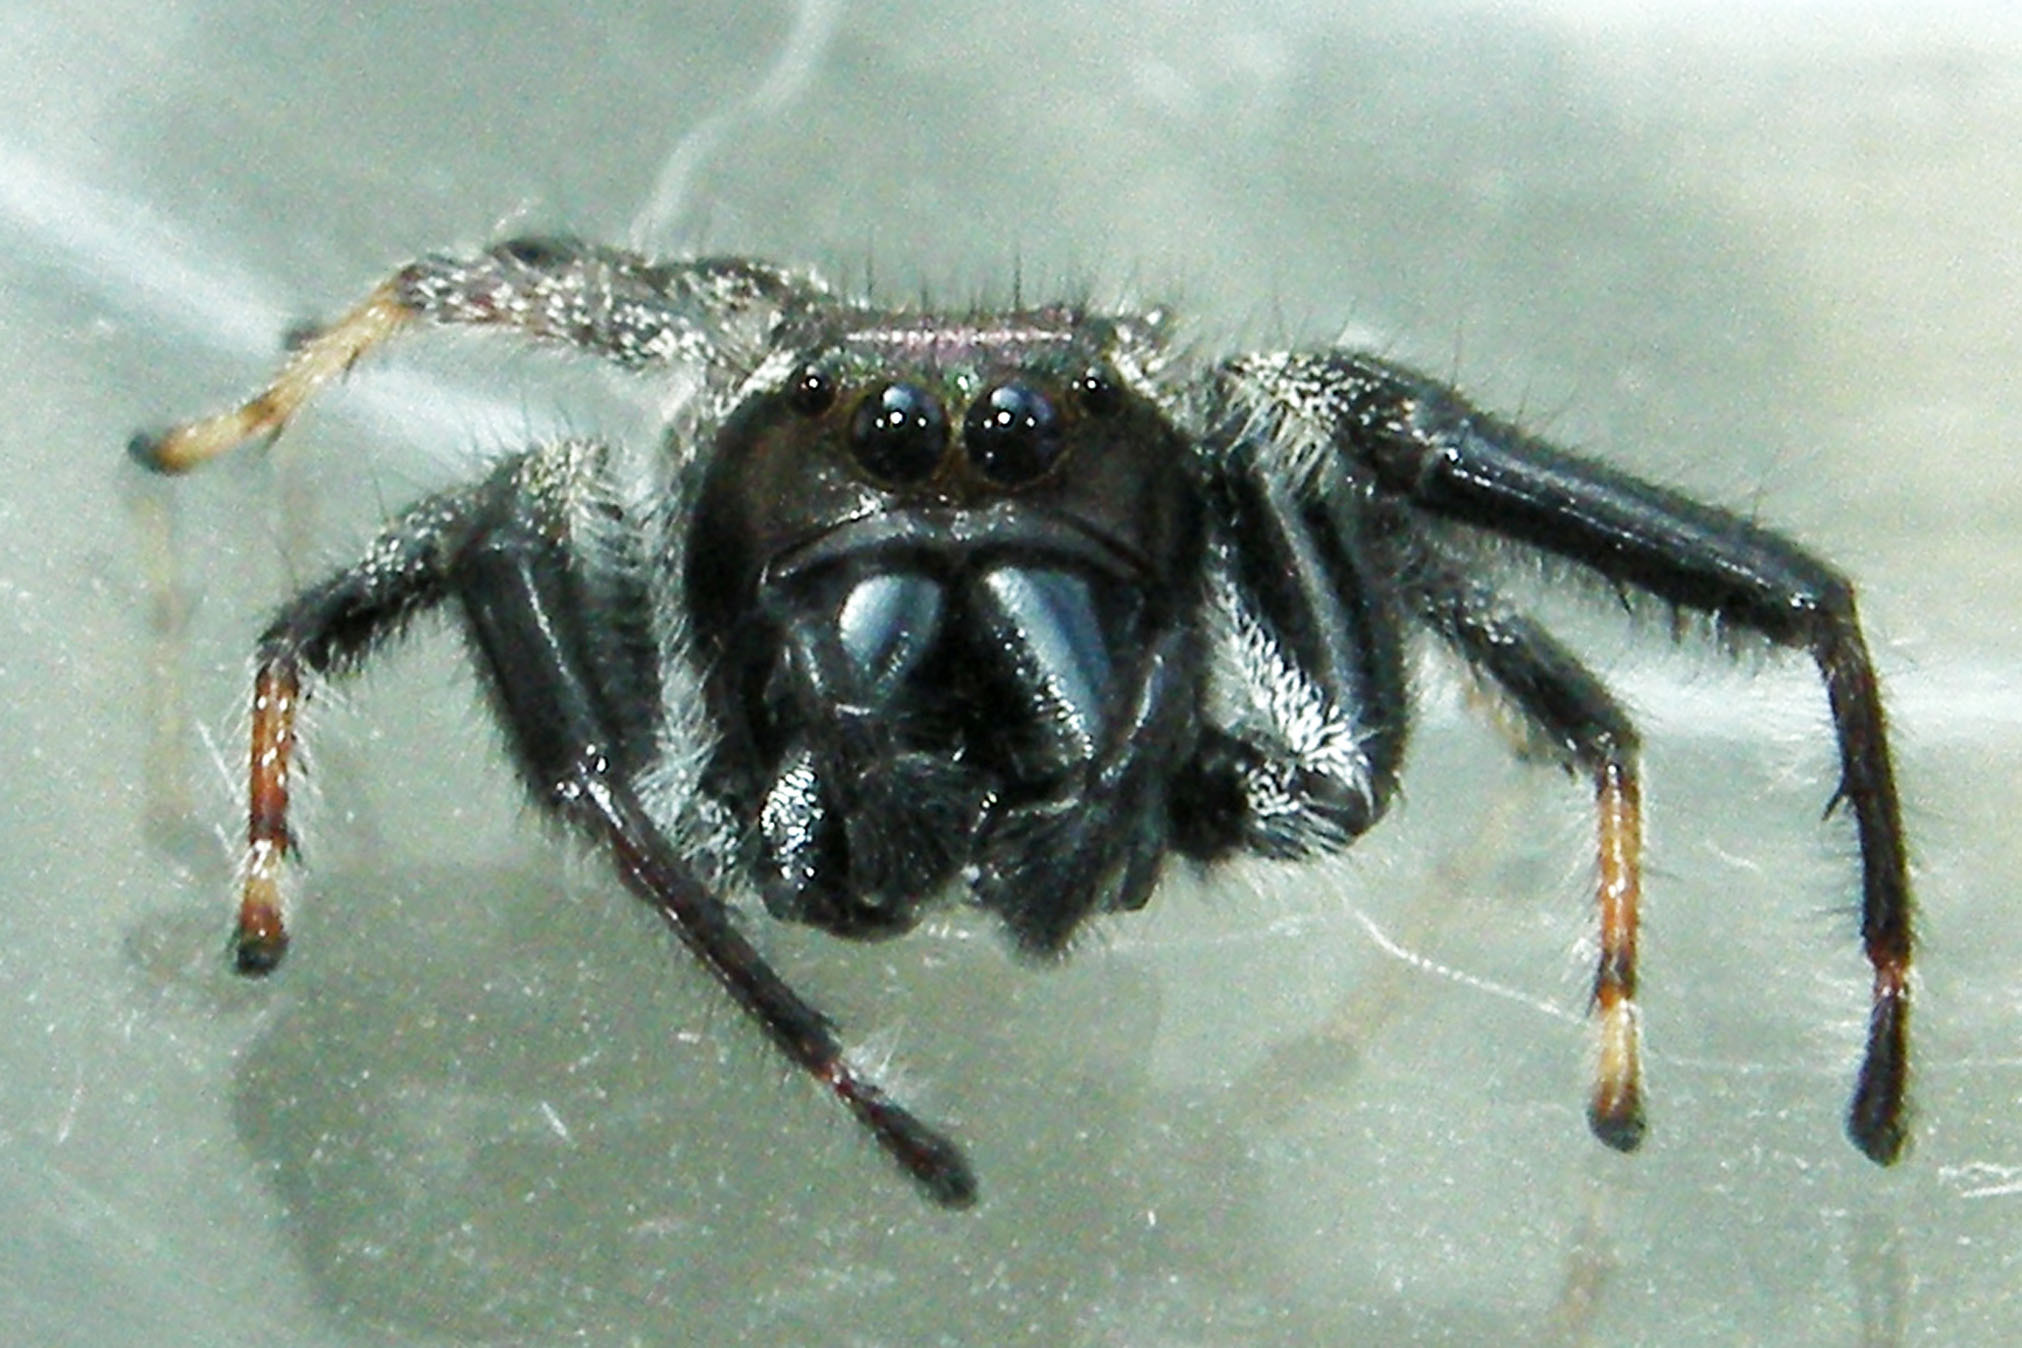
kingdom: Animalia
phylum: Arthropoda
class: Arachnida
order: Araneae
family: Salticidae
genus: Paraphidippus
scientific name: Paraphidippus aurantius
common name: Jumping spiders
